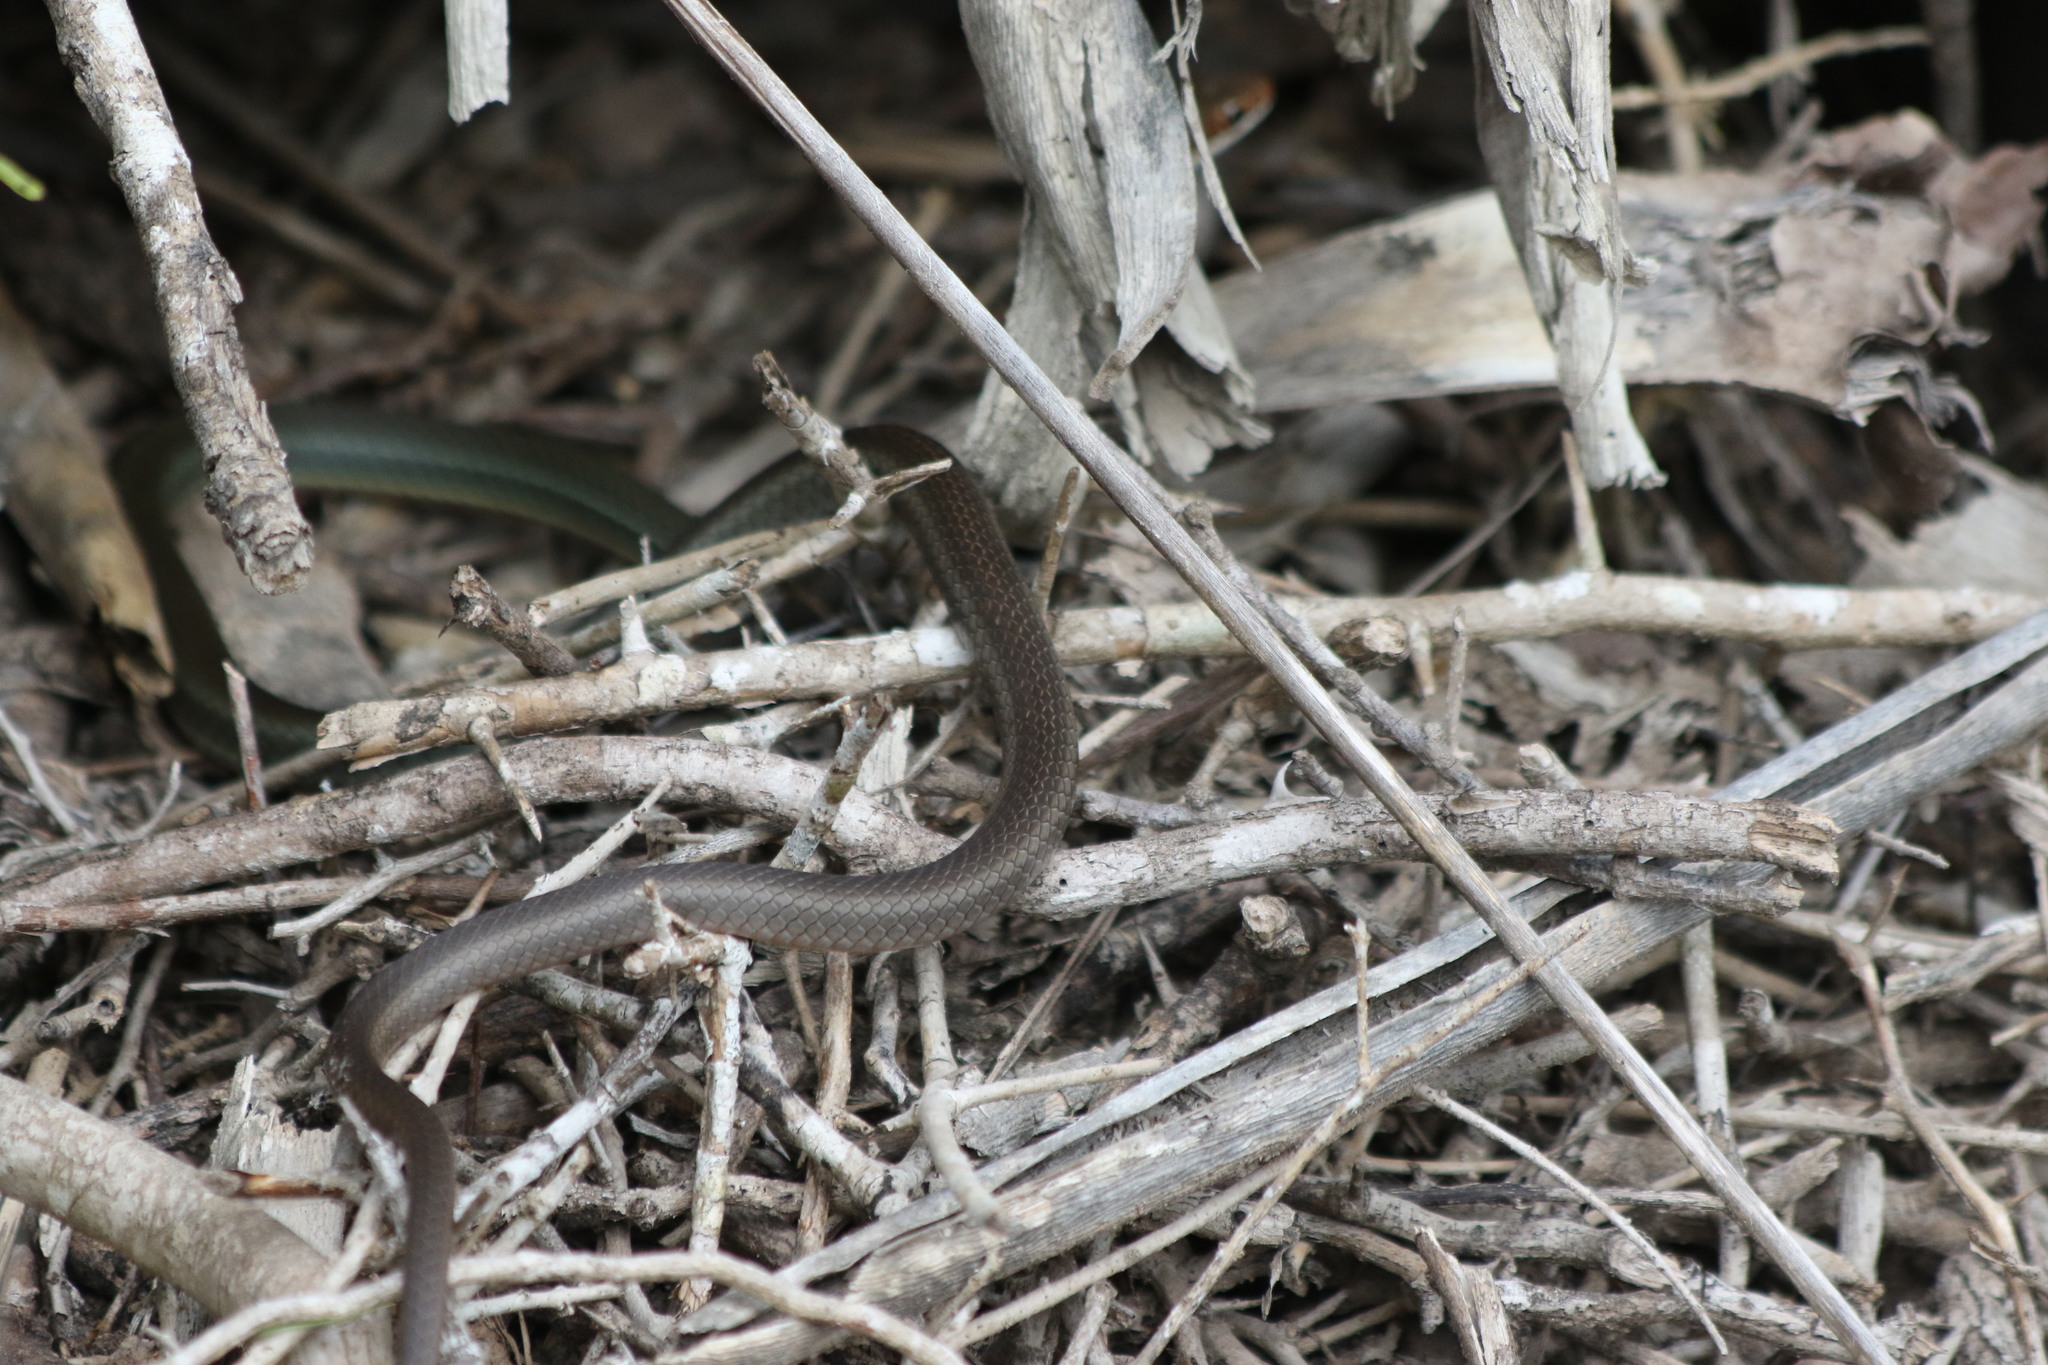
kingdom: Animalia
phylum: Chordata
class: Squamata
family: Colubridae
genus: Masticophis
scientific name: Masticophis schotti
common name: Schott's whipsnake
